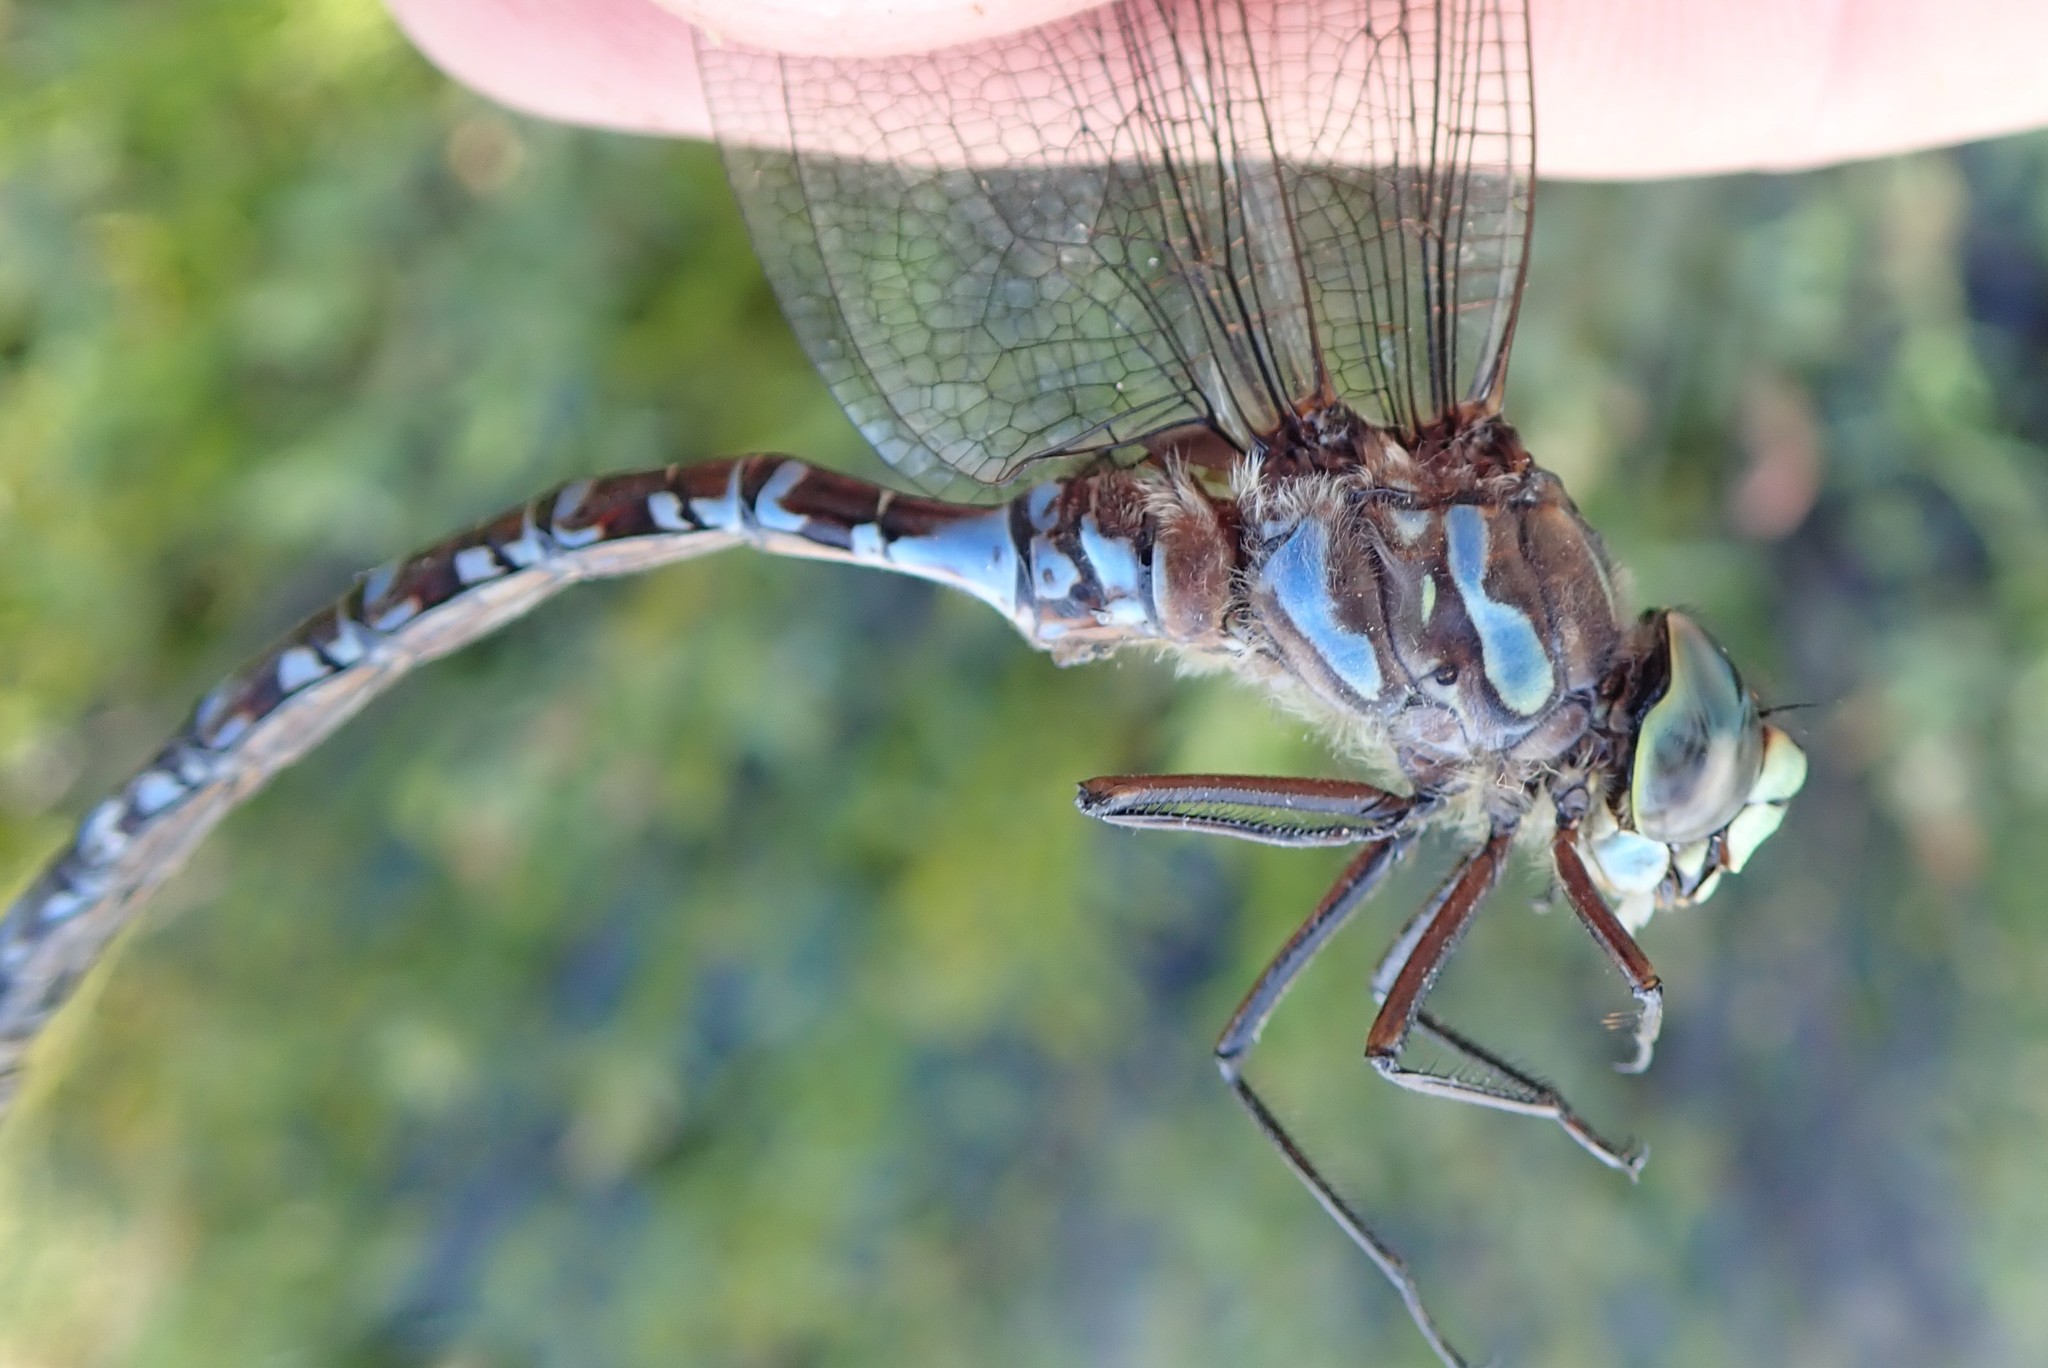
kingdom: Animalia
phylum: Arthropoda
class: Insecta
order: Odonata
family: Aeshnidae
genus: Aeshna
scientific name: Aeshna eremita
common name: Lake darner
